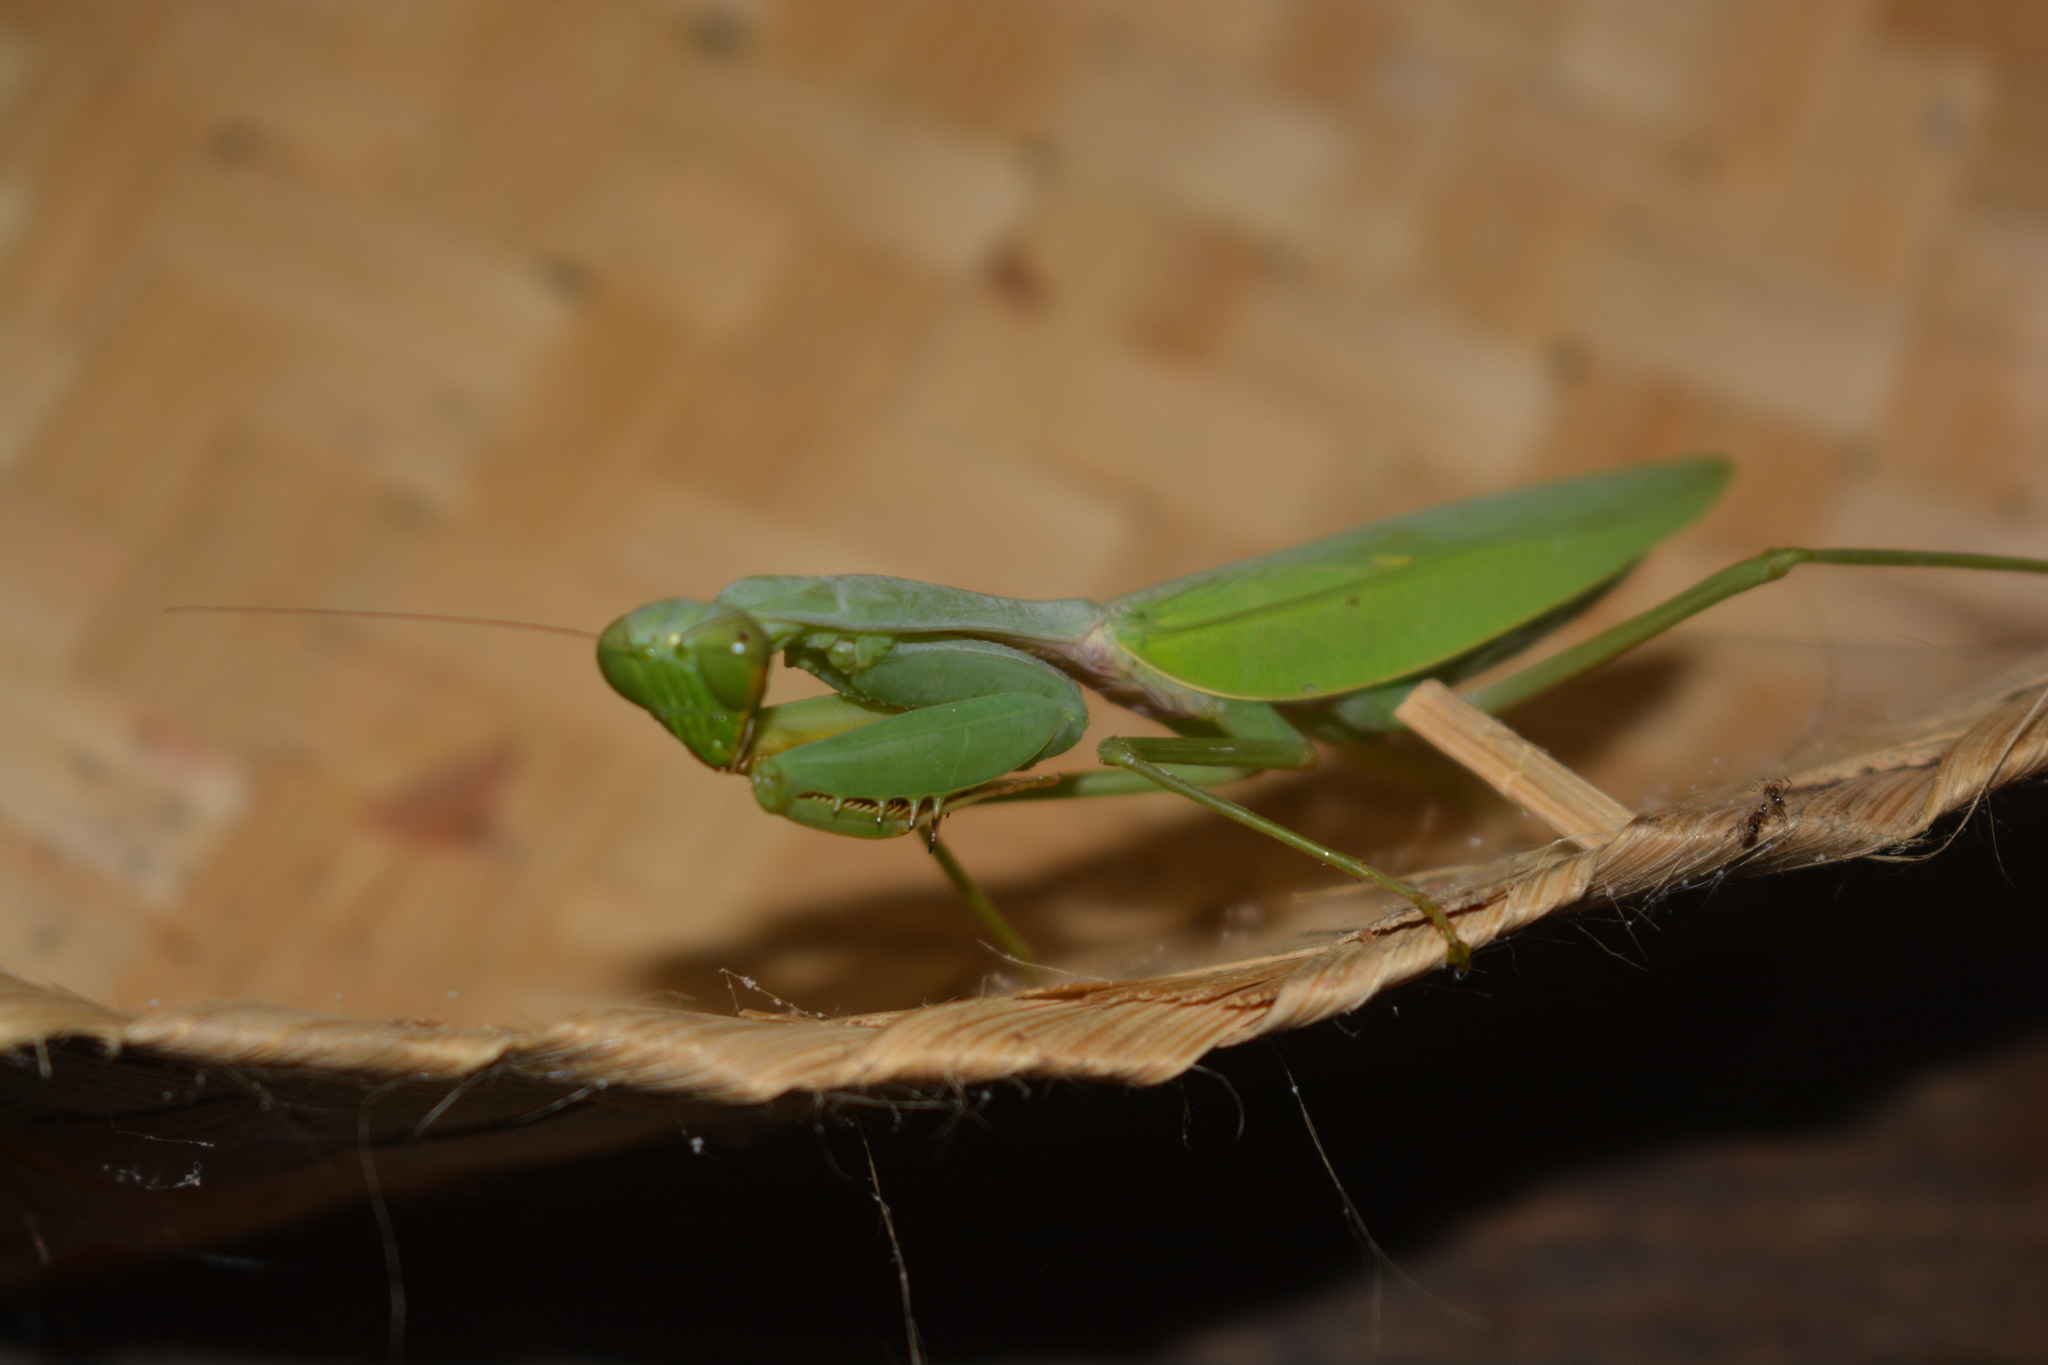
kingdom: Animalia
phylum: Arthropoda
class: Insecta
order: Mantodea
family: Mantidae
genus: Hierodula
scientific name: Hierodula venosa
